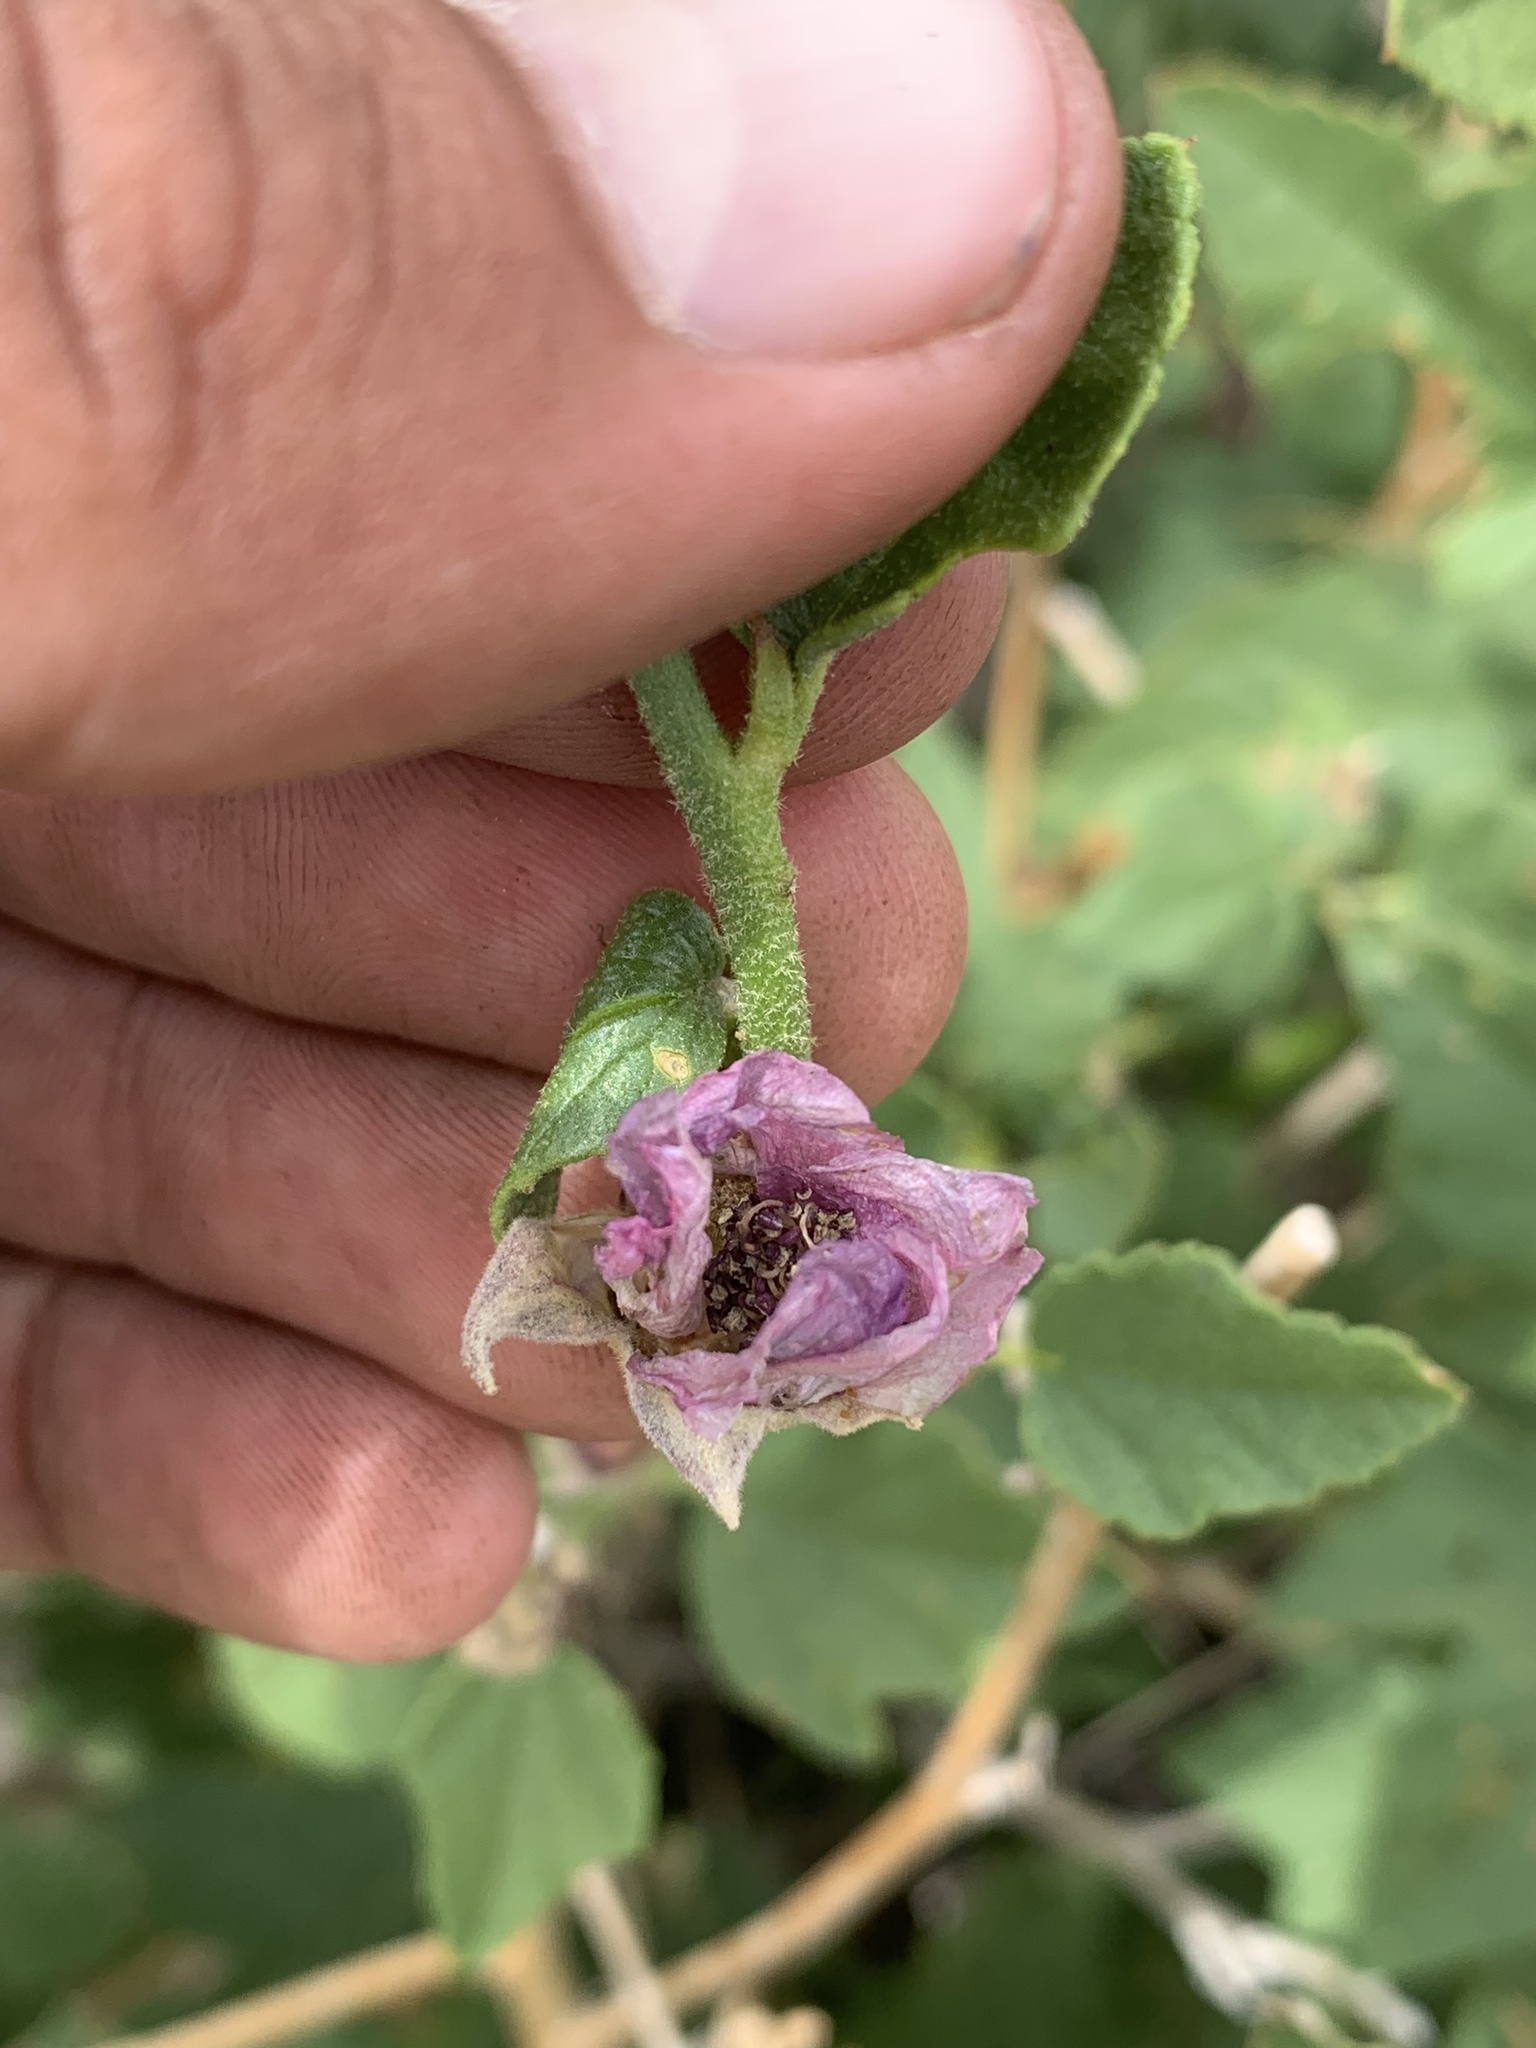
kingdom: Plantae
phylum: Tracheophyta
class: Magnoliopsida
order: Malvales
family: Malvaceae
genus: Iliamna
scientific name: Iliamna bakeri
